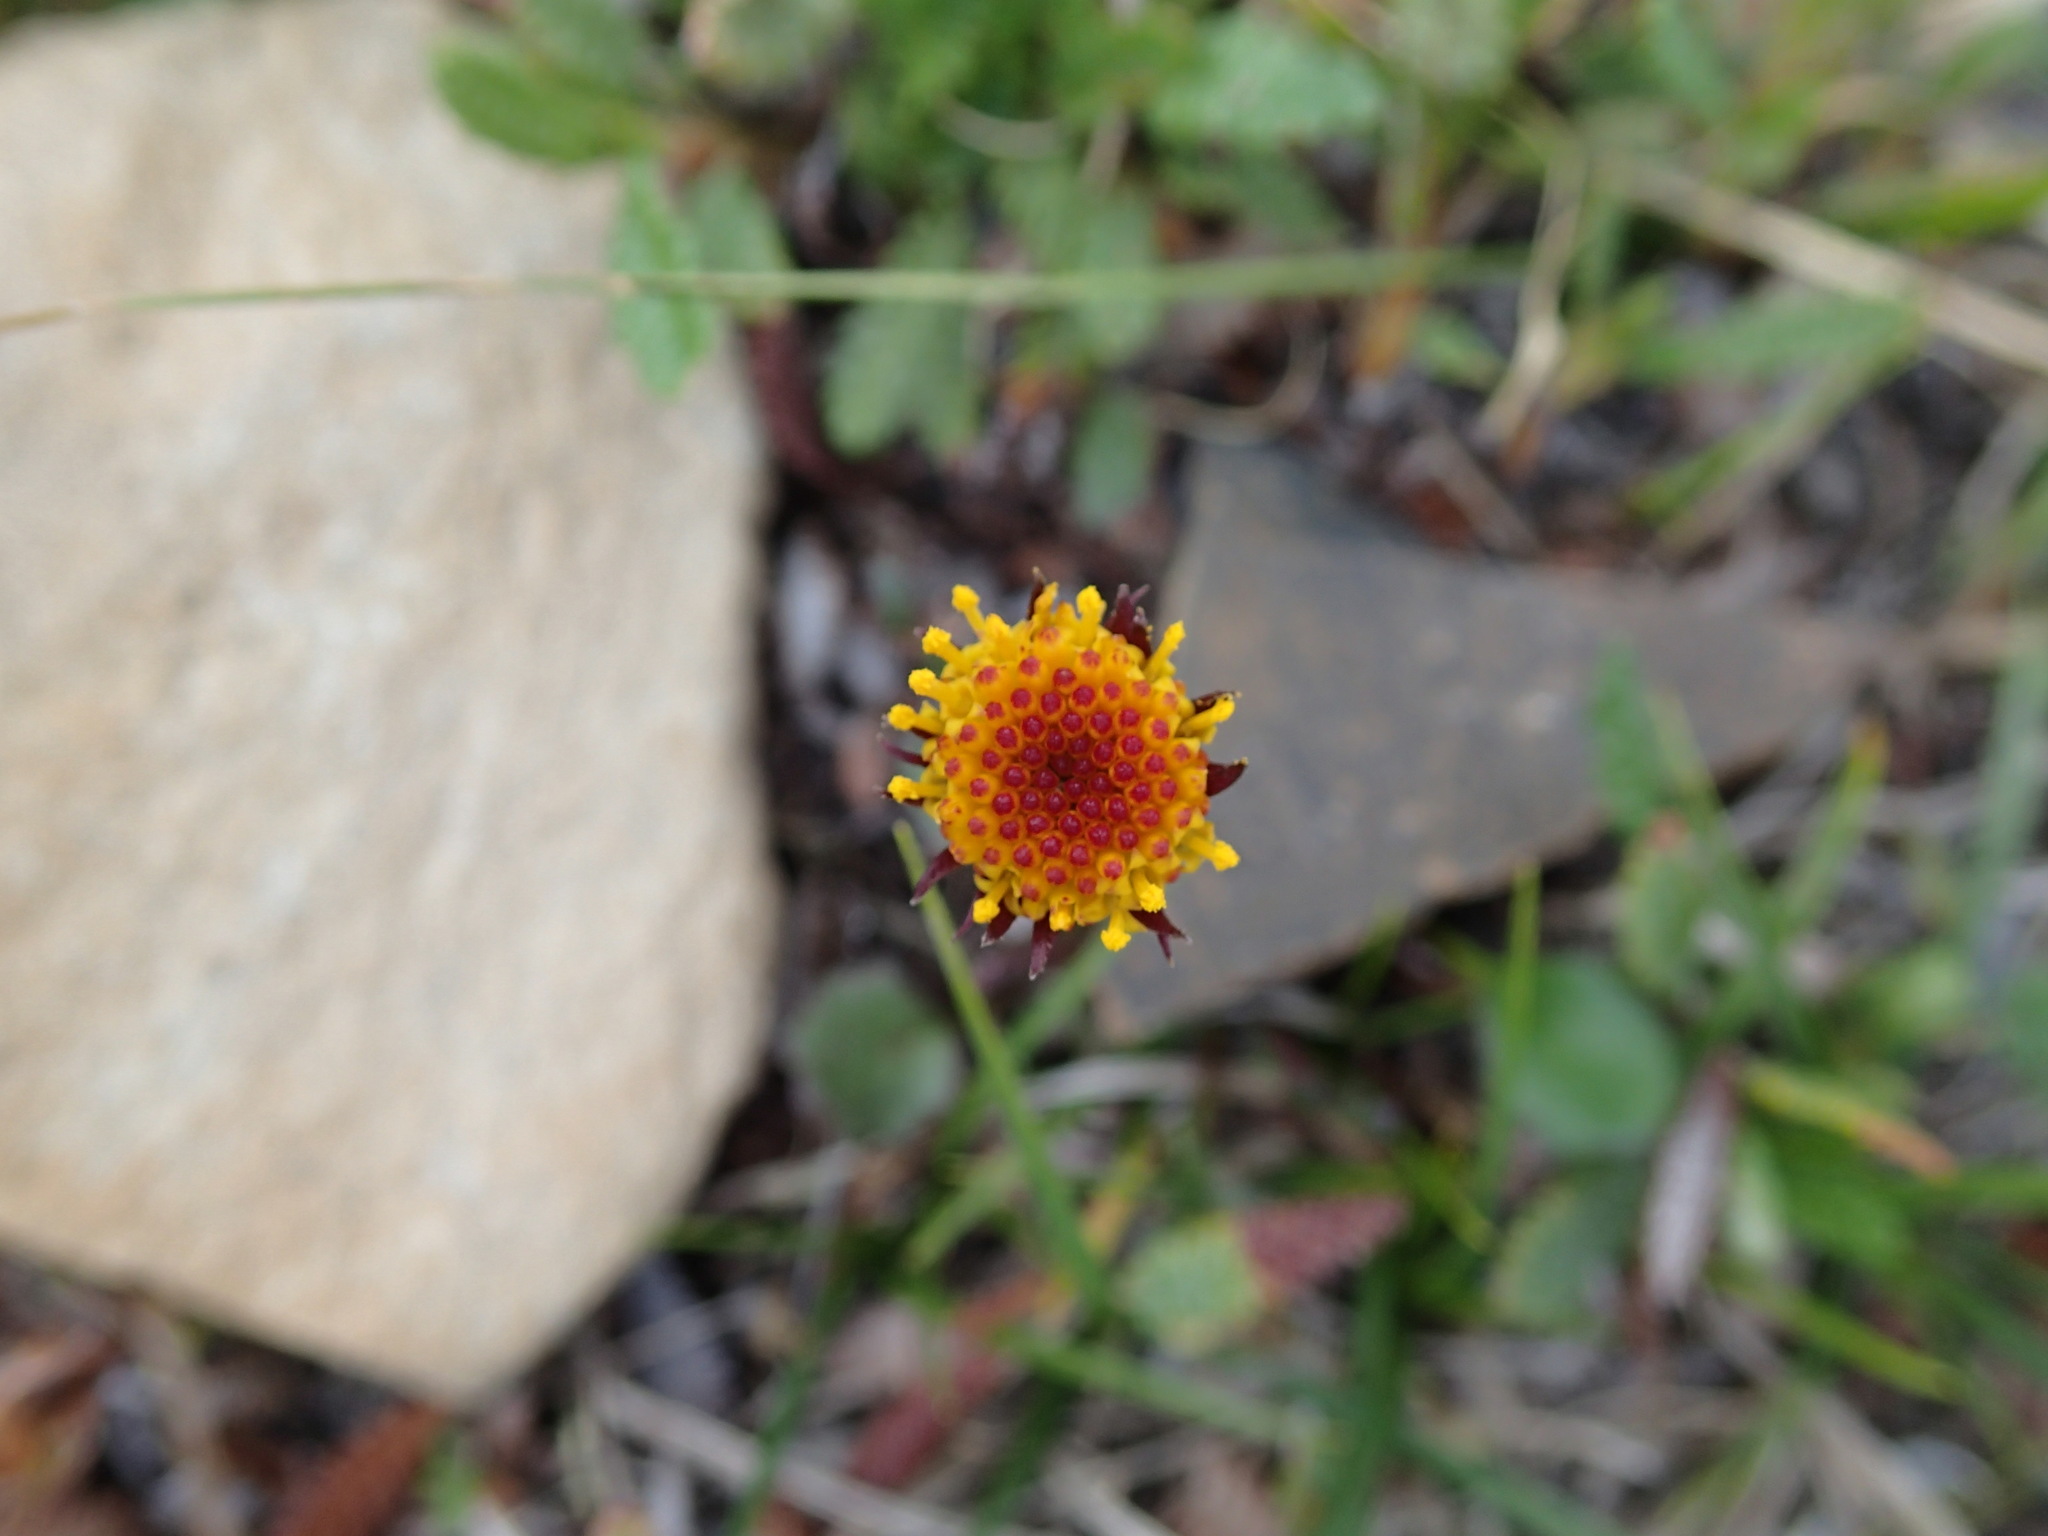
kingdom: Plantae
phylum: Tracheophyta
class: Magnoliopsida
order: Asterales
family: Asteraceae
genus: Packera
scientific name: Packera cymbalaria
